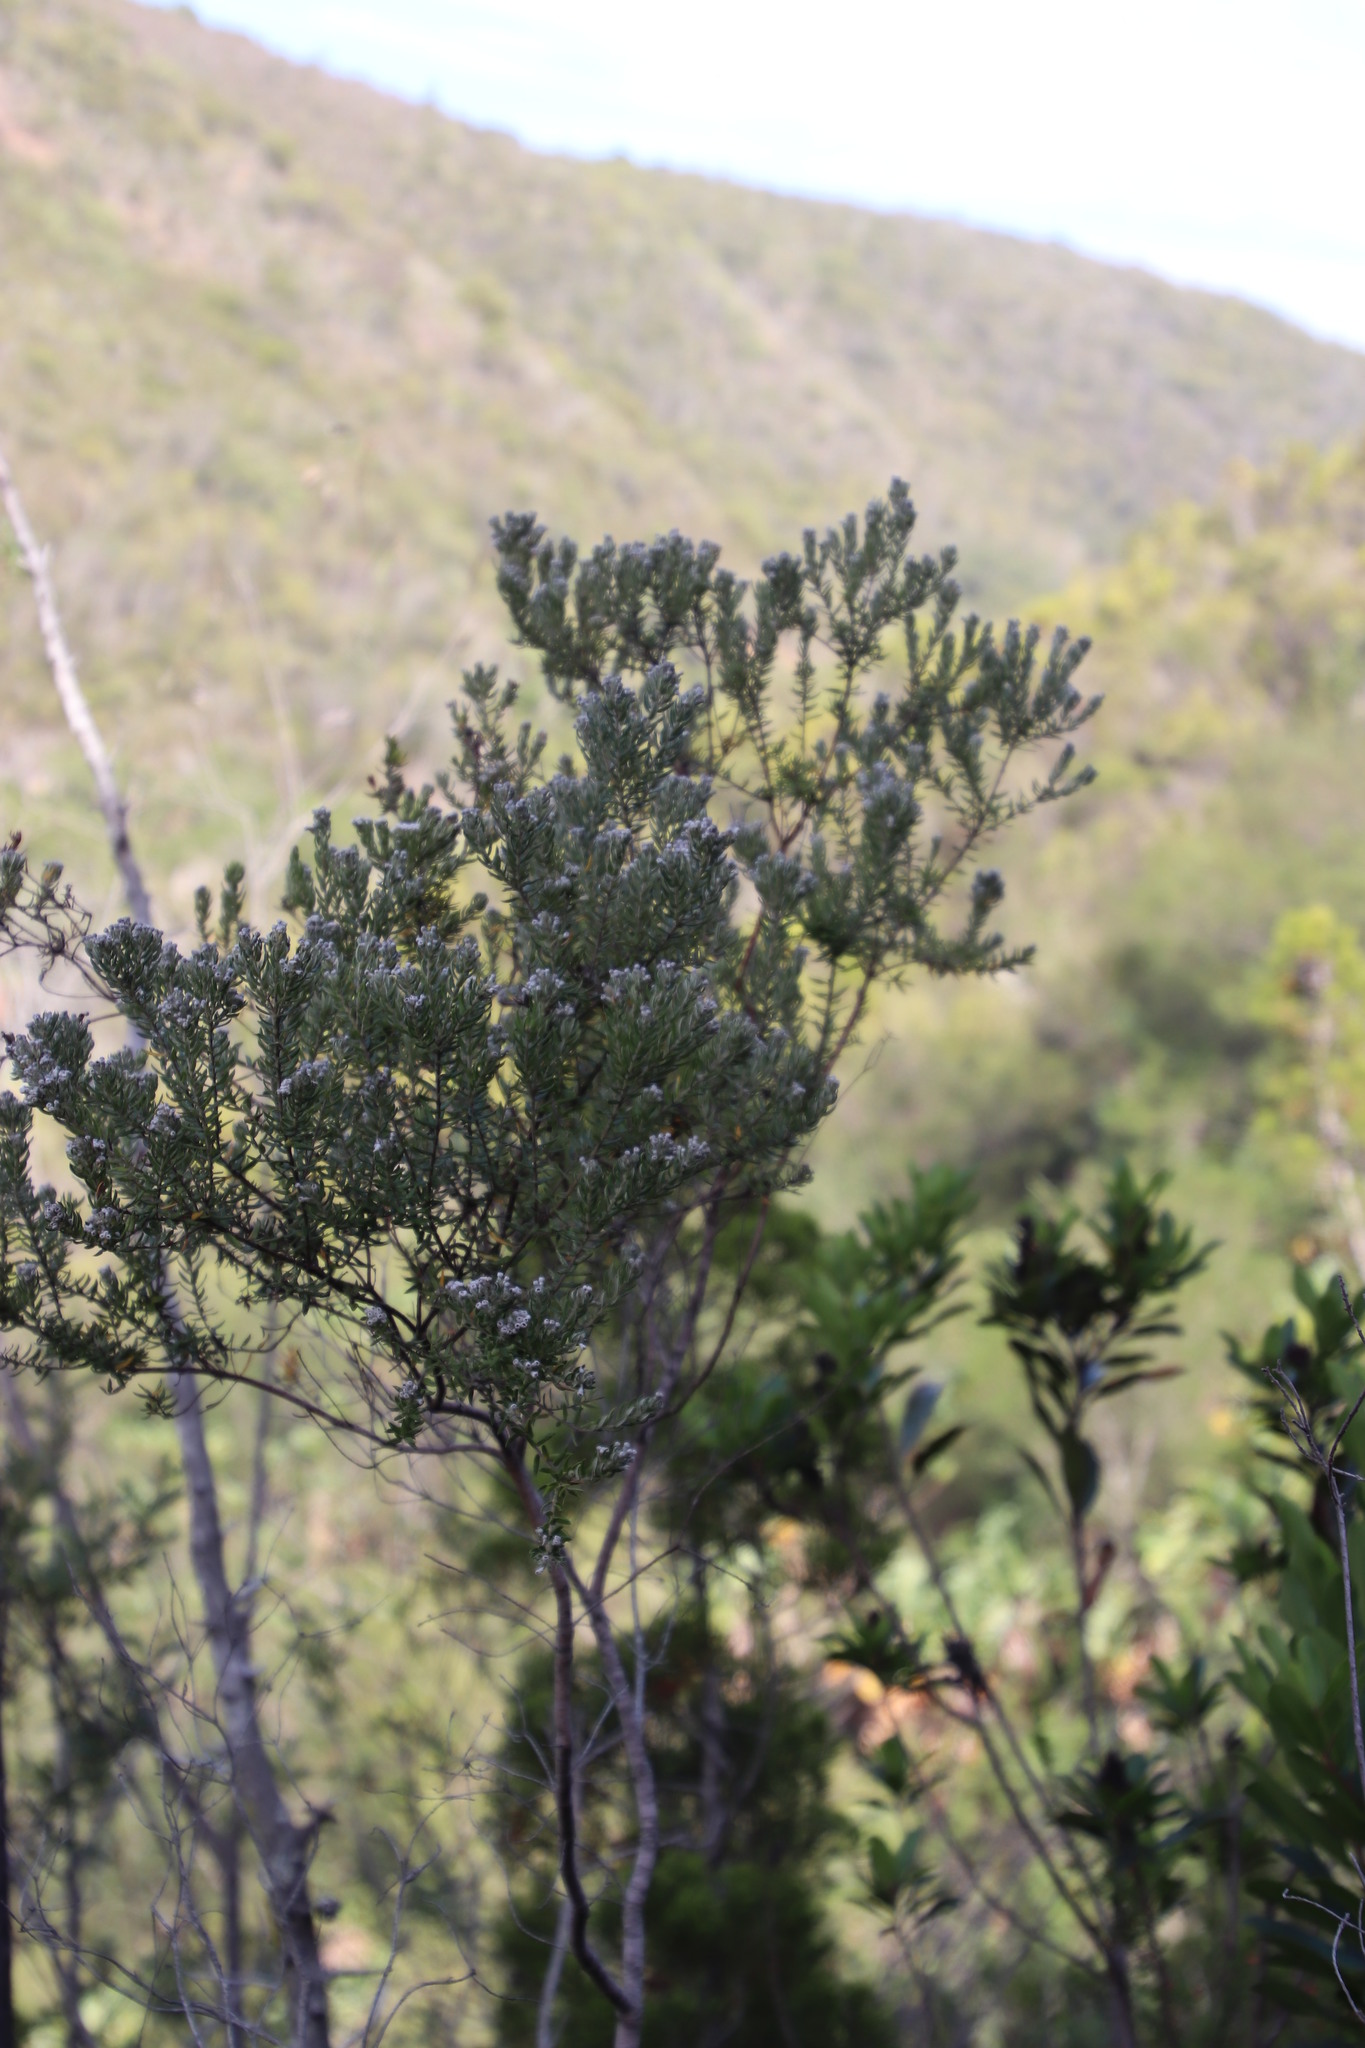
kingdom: Plantae
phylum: Tracheophyta
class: Magnoliopsida
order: Rosales
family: Rhamnaceae
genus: Phylica
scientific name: Phylica pinea
